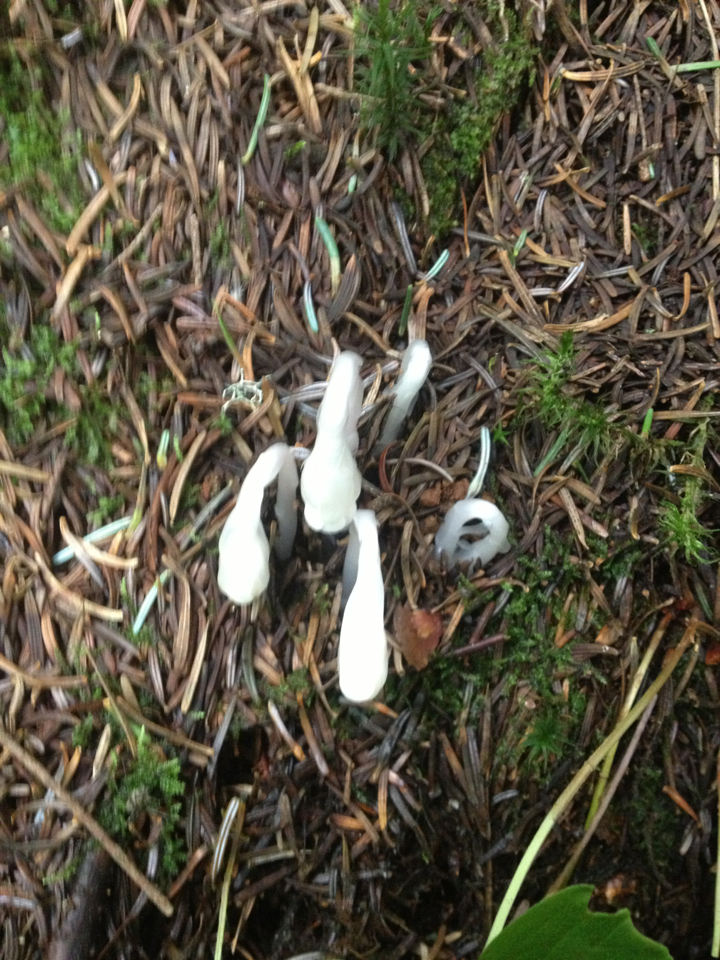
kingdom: Plantae
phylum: Tracheophyta
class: Magnoliopsida
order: Ericales
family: Ericaceae
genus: Monotropa
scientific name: Monotropa uniflora
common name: Convulsion root
